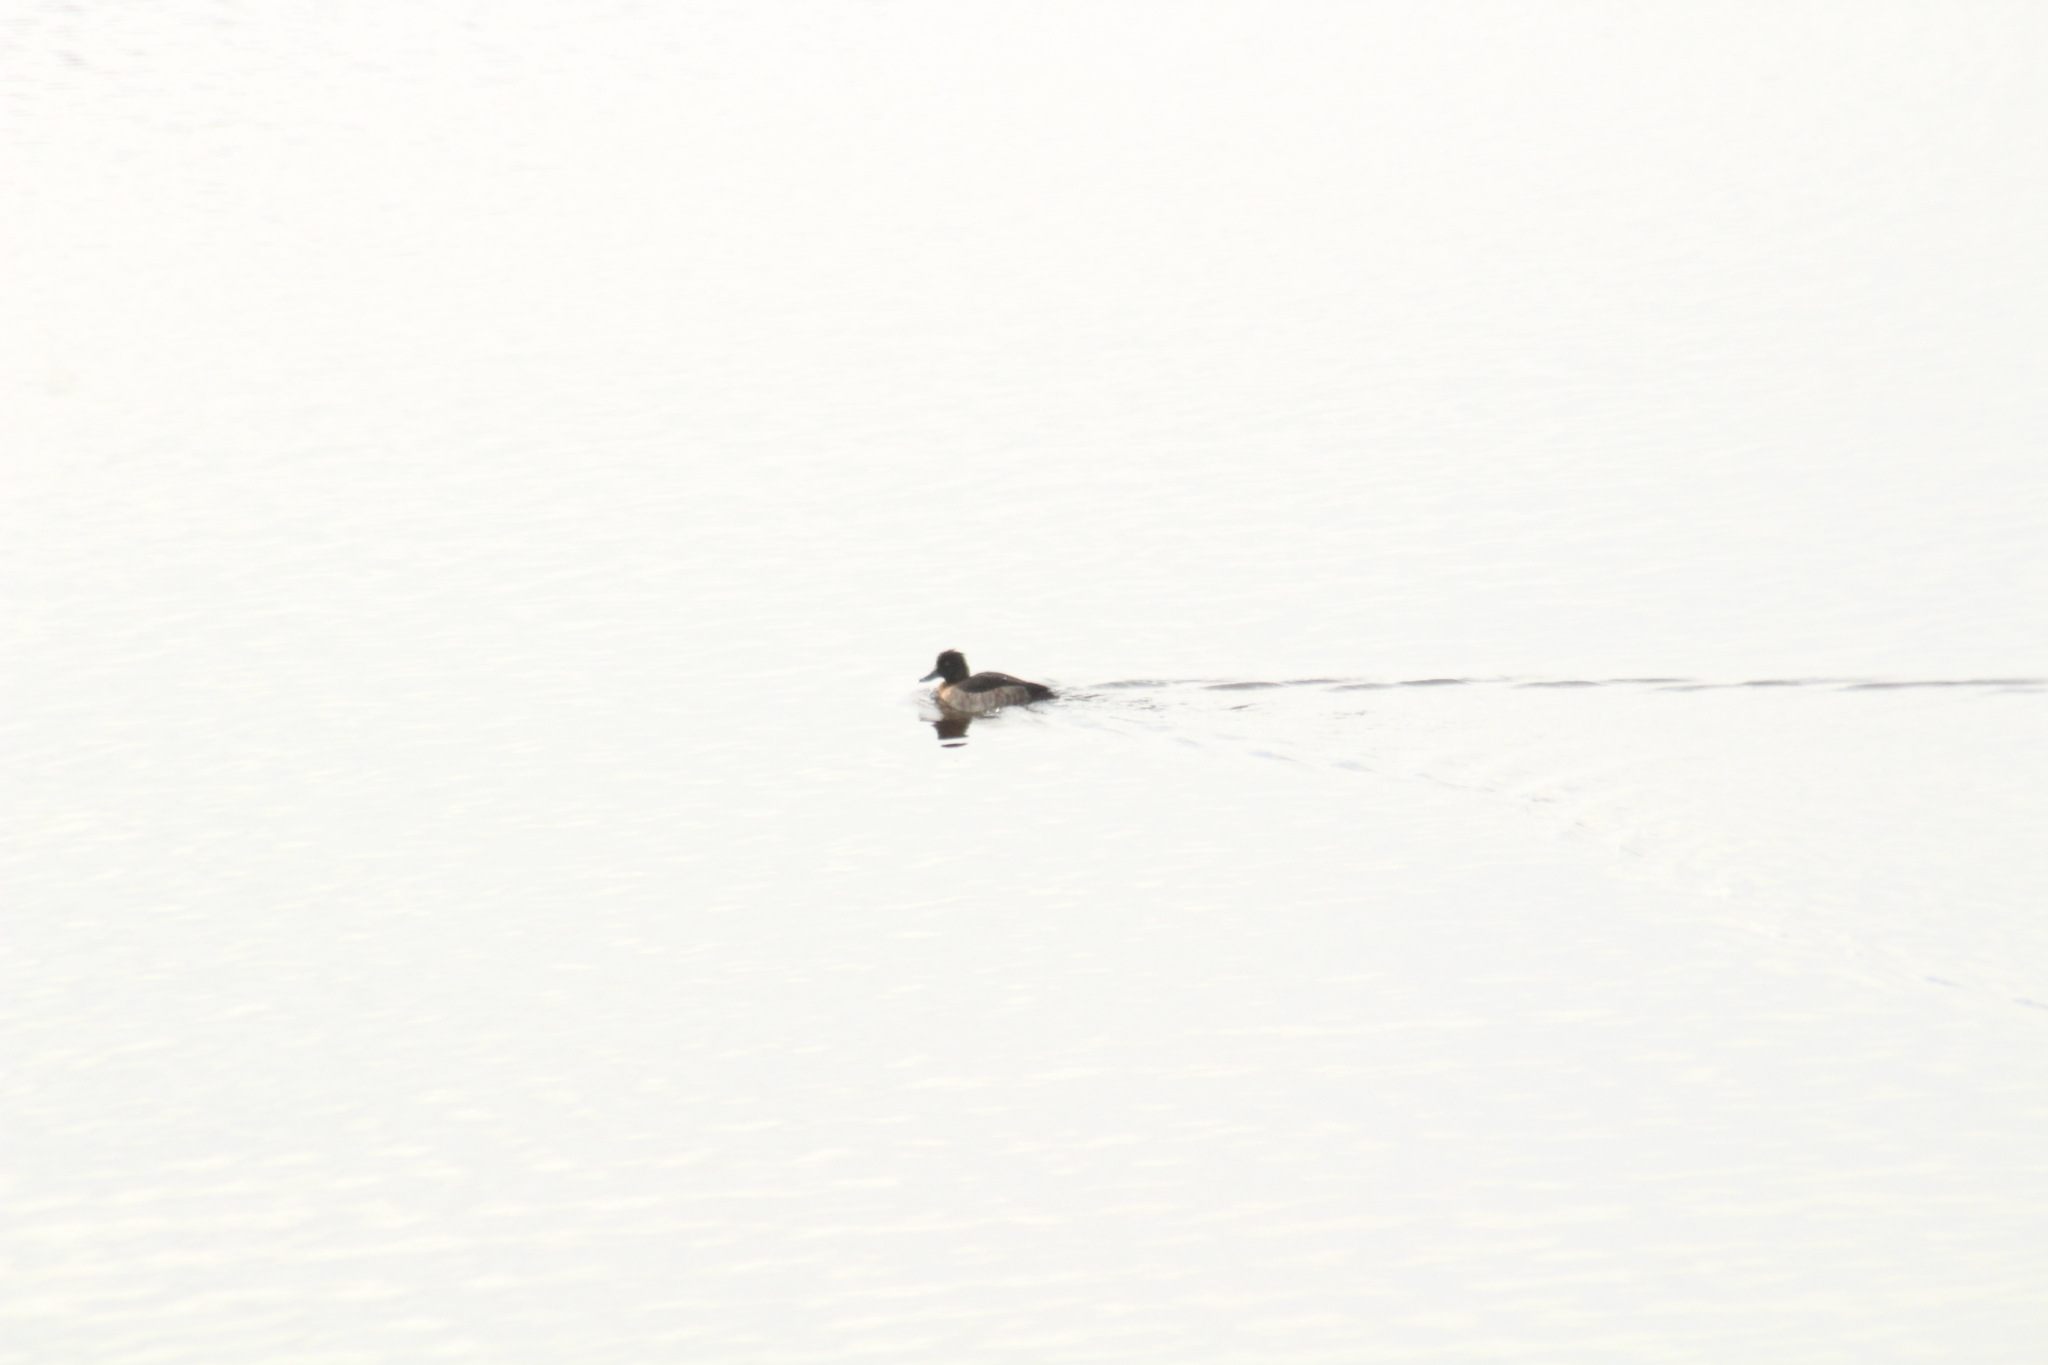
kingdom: Animalia
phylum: Chordata
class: Aves
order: Anseriformes
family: Anatidae
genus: Aythya
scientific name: Aythya fuligula
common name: Tufted duck
